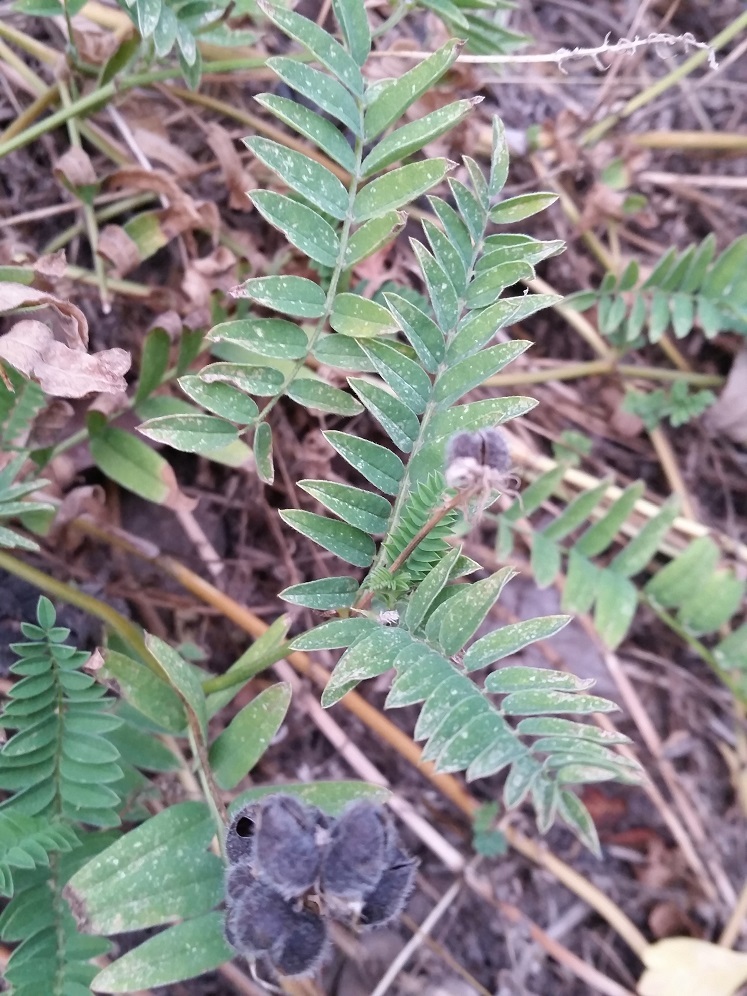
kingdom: Plantae
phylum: Tracheophyta
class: Magnoliopsida
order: Fabales
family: Fabaceae
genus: Astragalus
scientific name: Astragalus cicer
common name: Chick-pea milk-vetch
